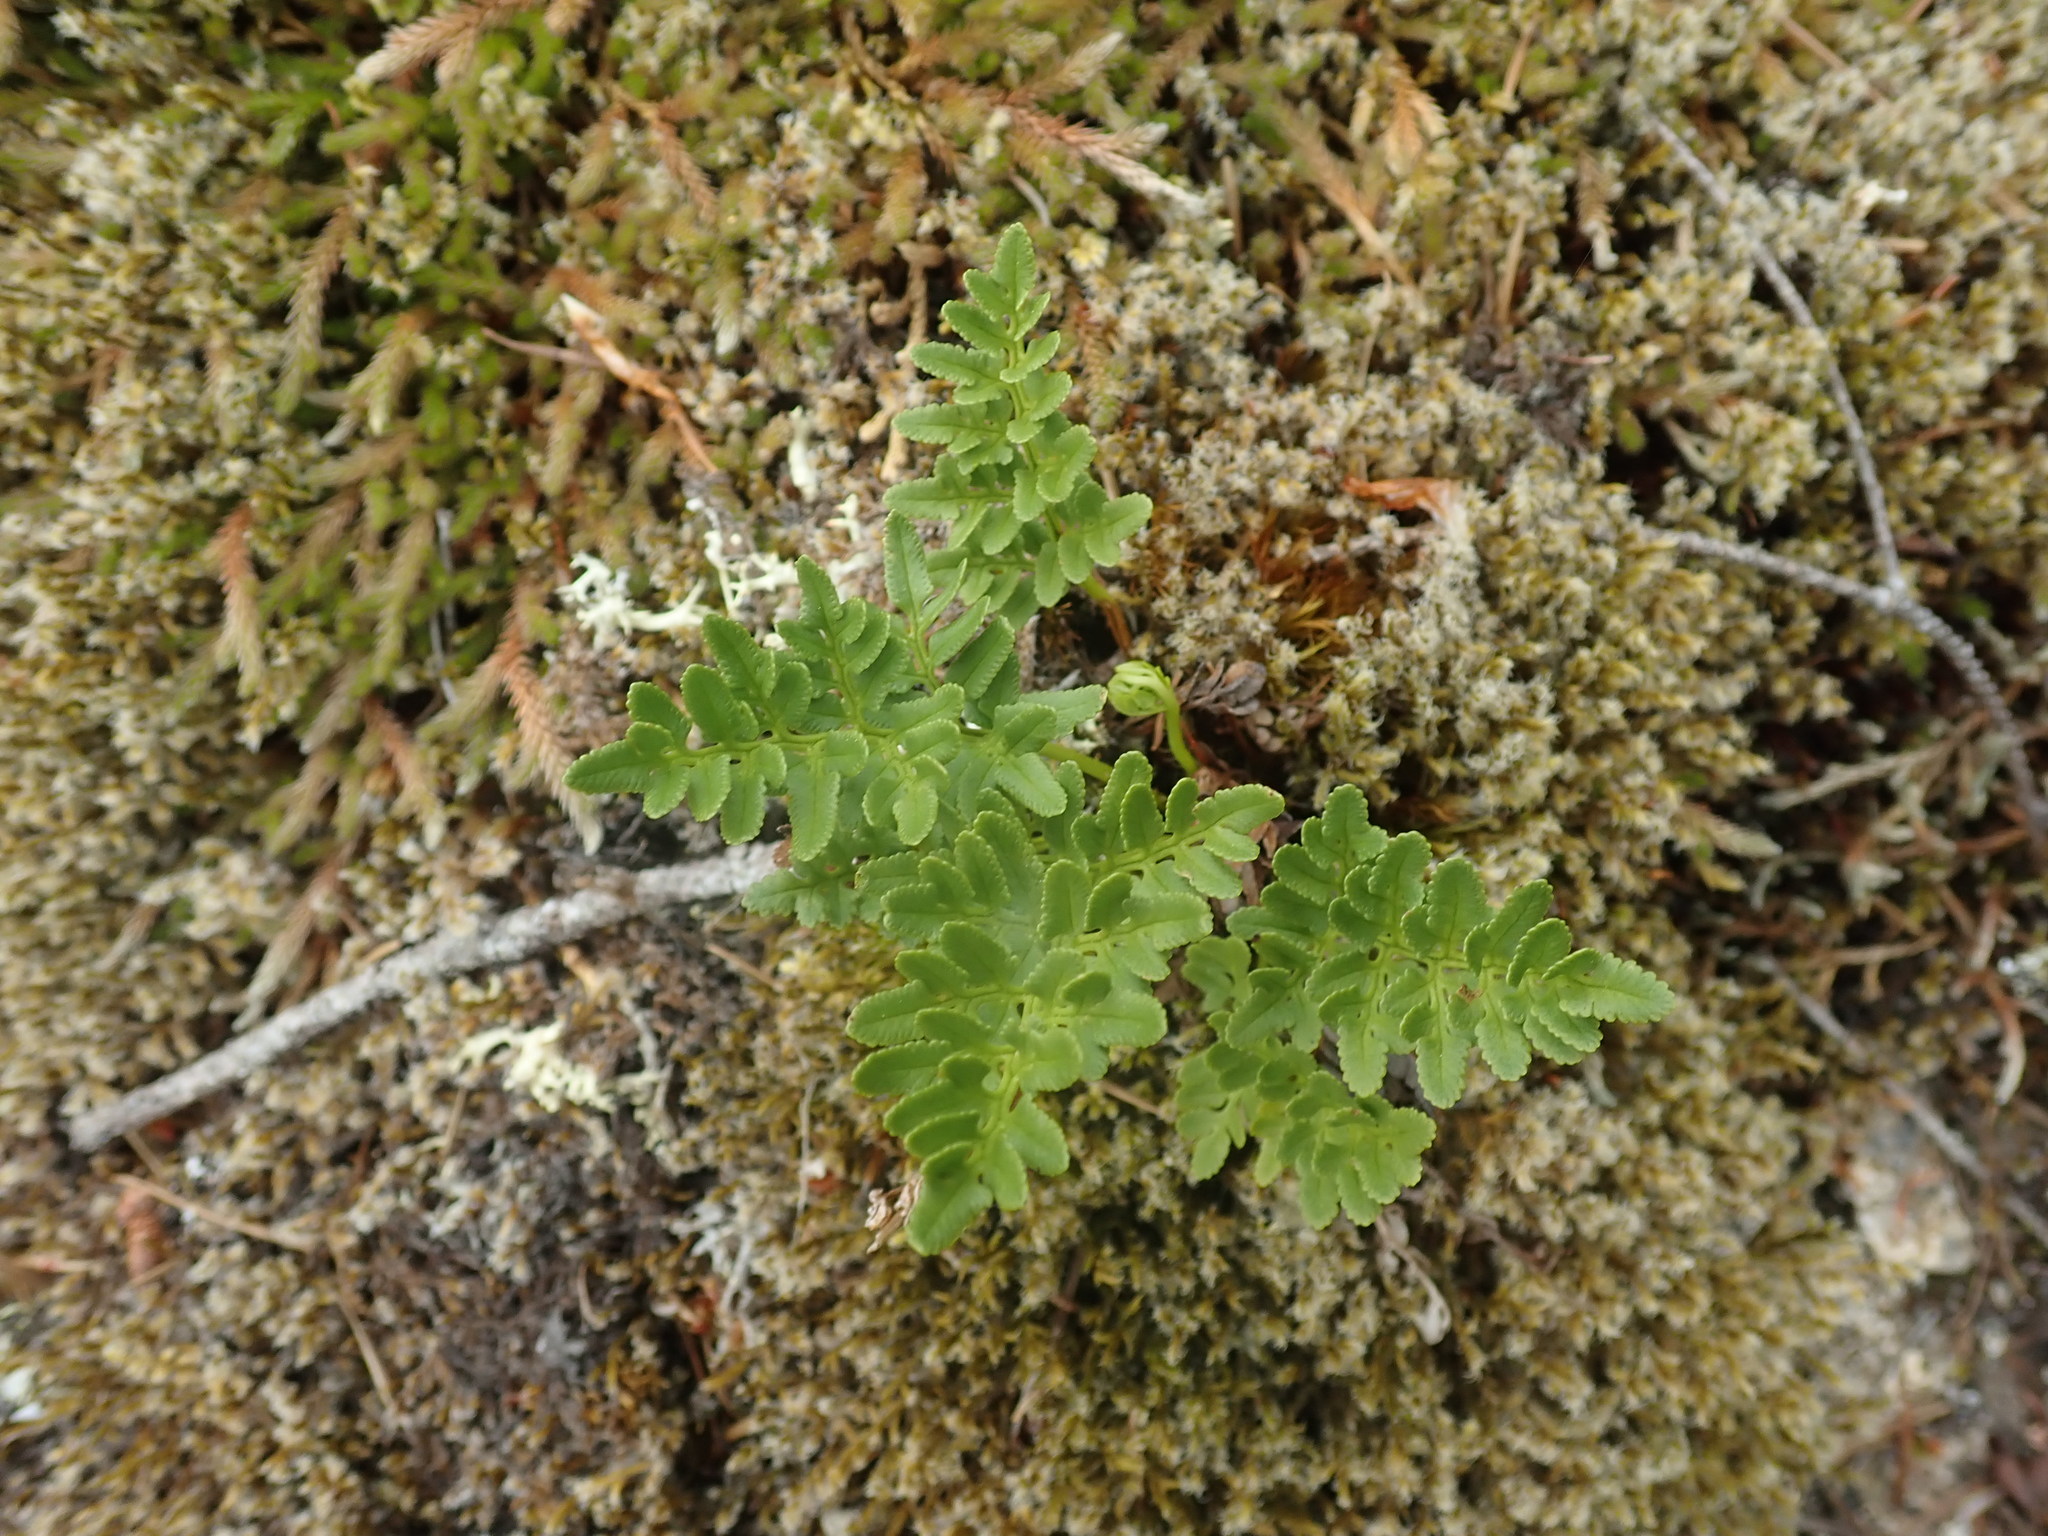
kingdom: Plantae
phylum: Tracheophyta
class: Polypodiopsida
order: Polypodiales
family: Pteridaceae
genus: Cryptogramma
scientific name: Cryptogramma acrostichoides
